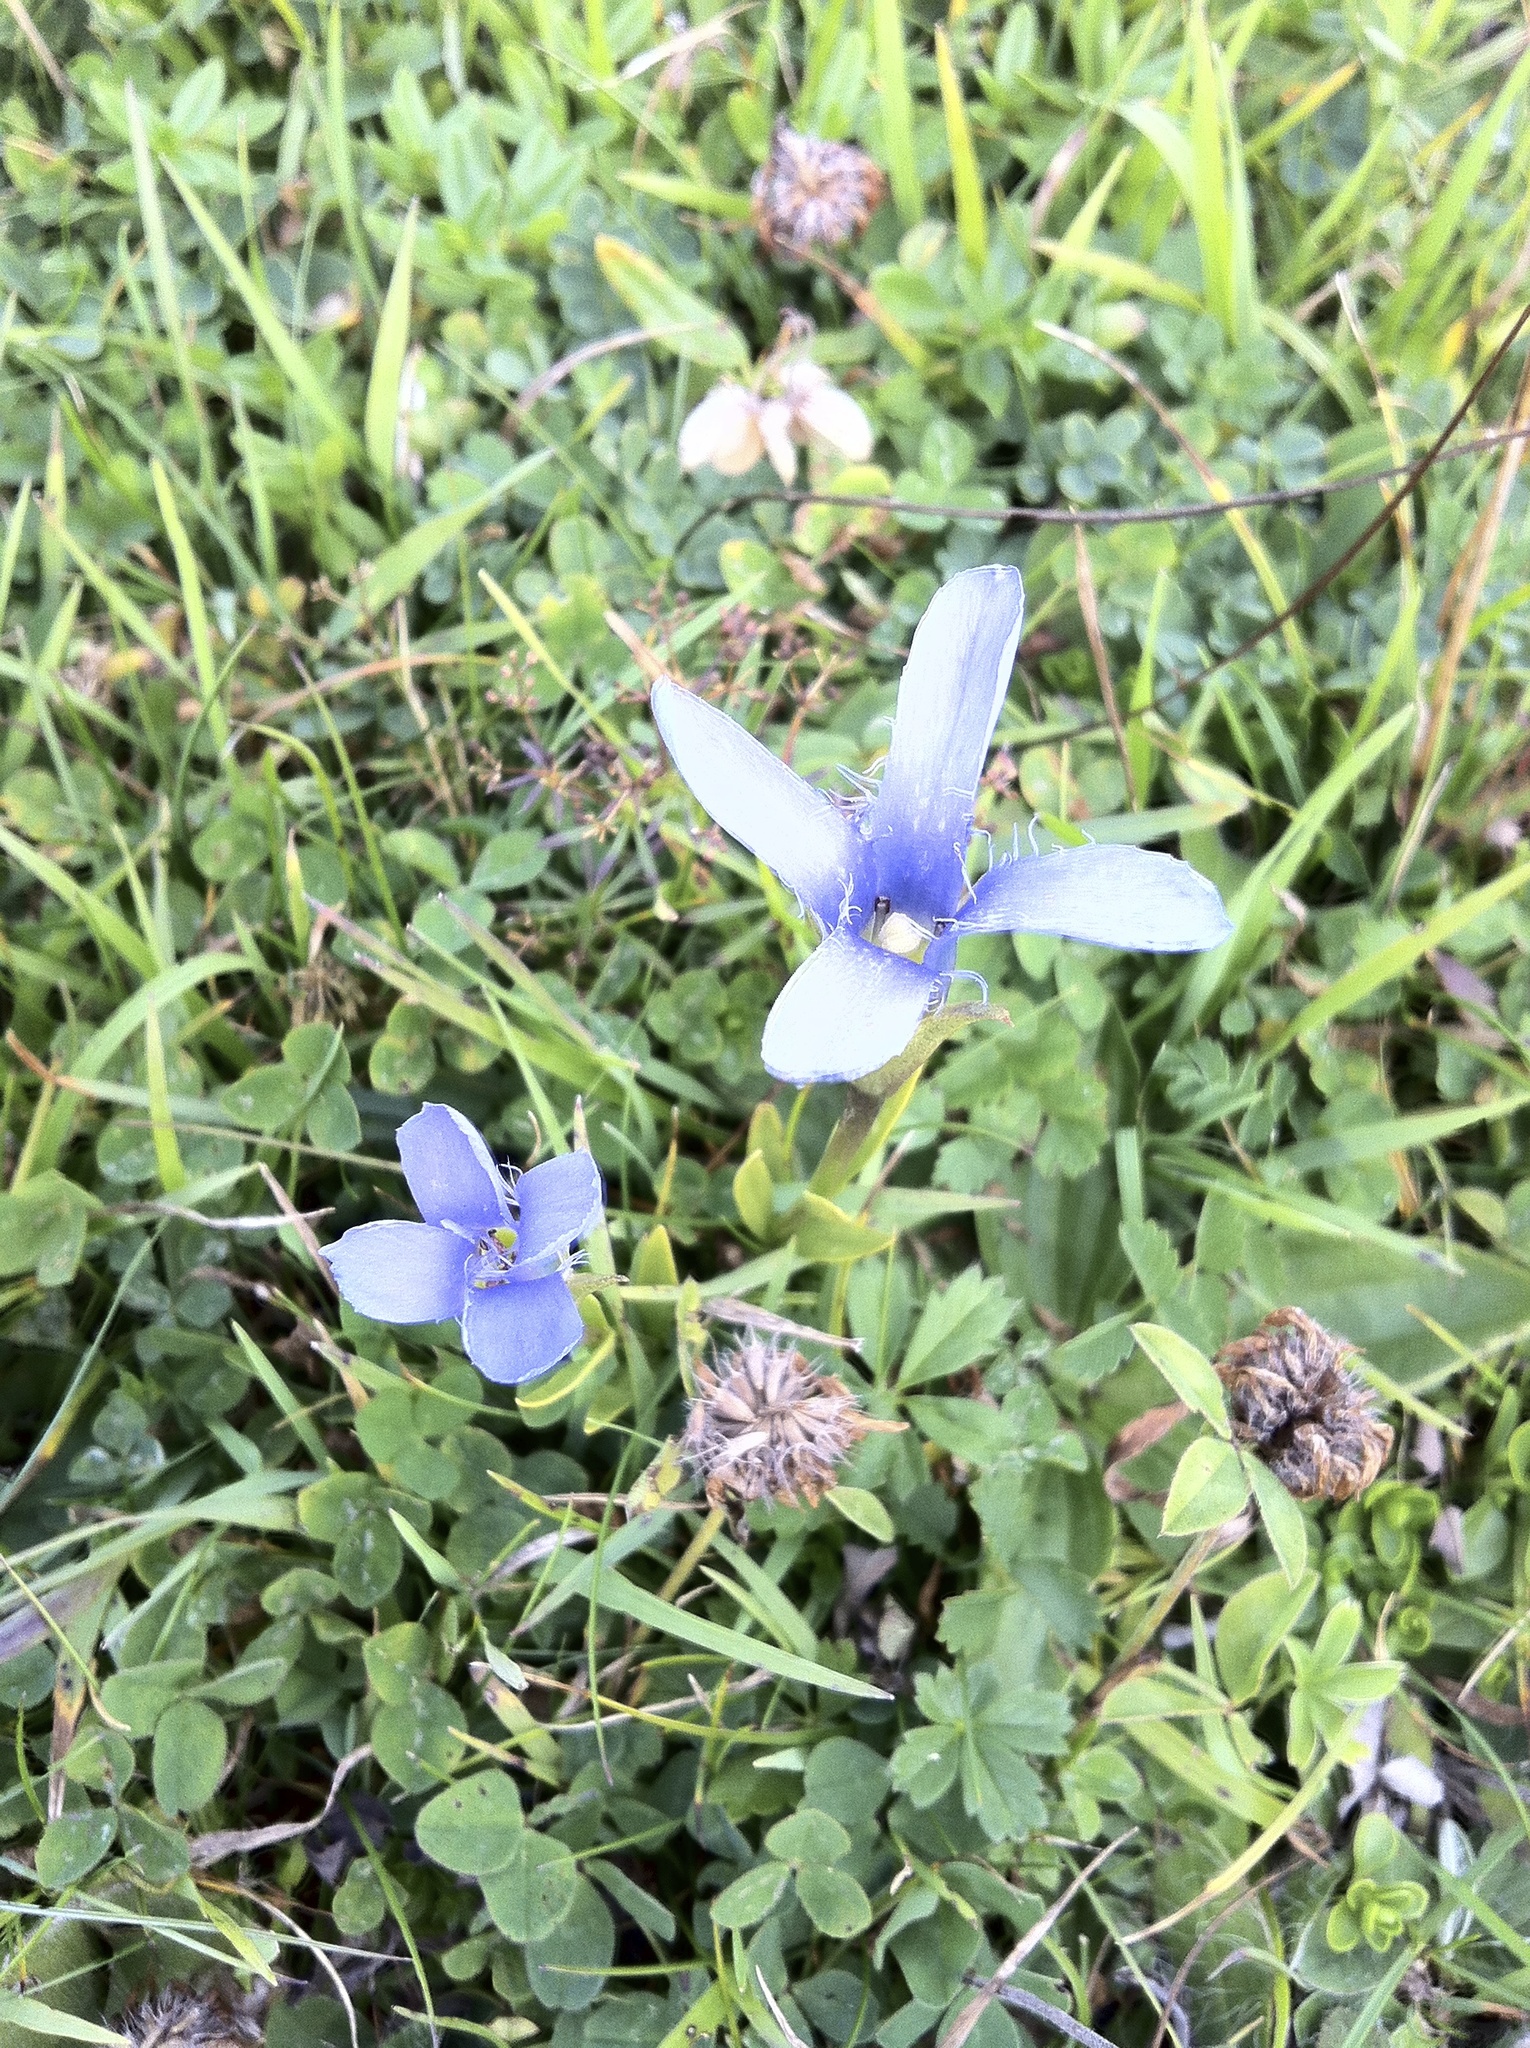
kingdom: Plantae
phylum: Tracheophyta
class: Magnoliopsida
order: Gentianales
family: Gentianaceae
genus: Gentianopsis
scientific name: Gentianopsis ciliata
